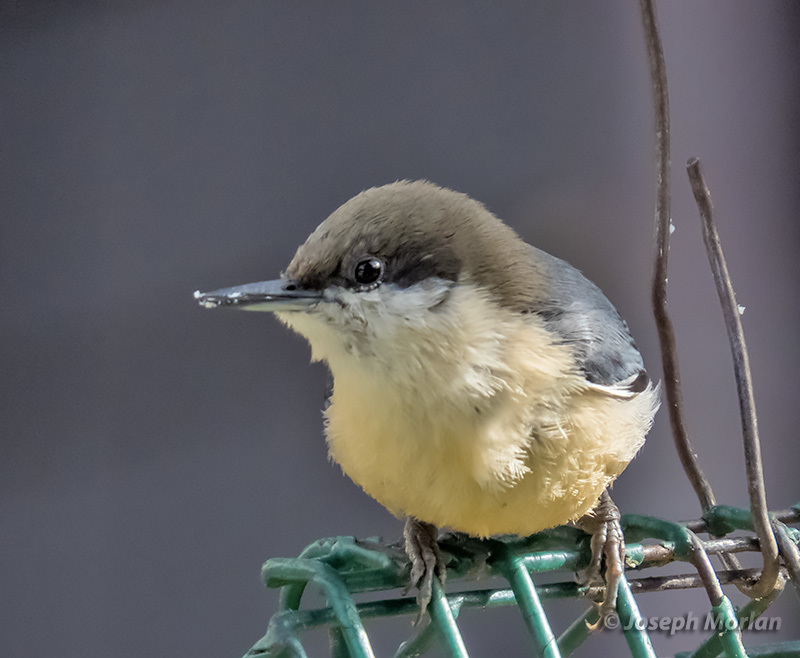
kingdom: Animalia
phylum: Chordata
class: Aves
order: Passeriformes
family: Sittidae
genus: Sitta
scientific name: Sitta pygmaea
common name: Pygmy nuthatch
